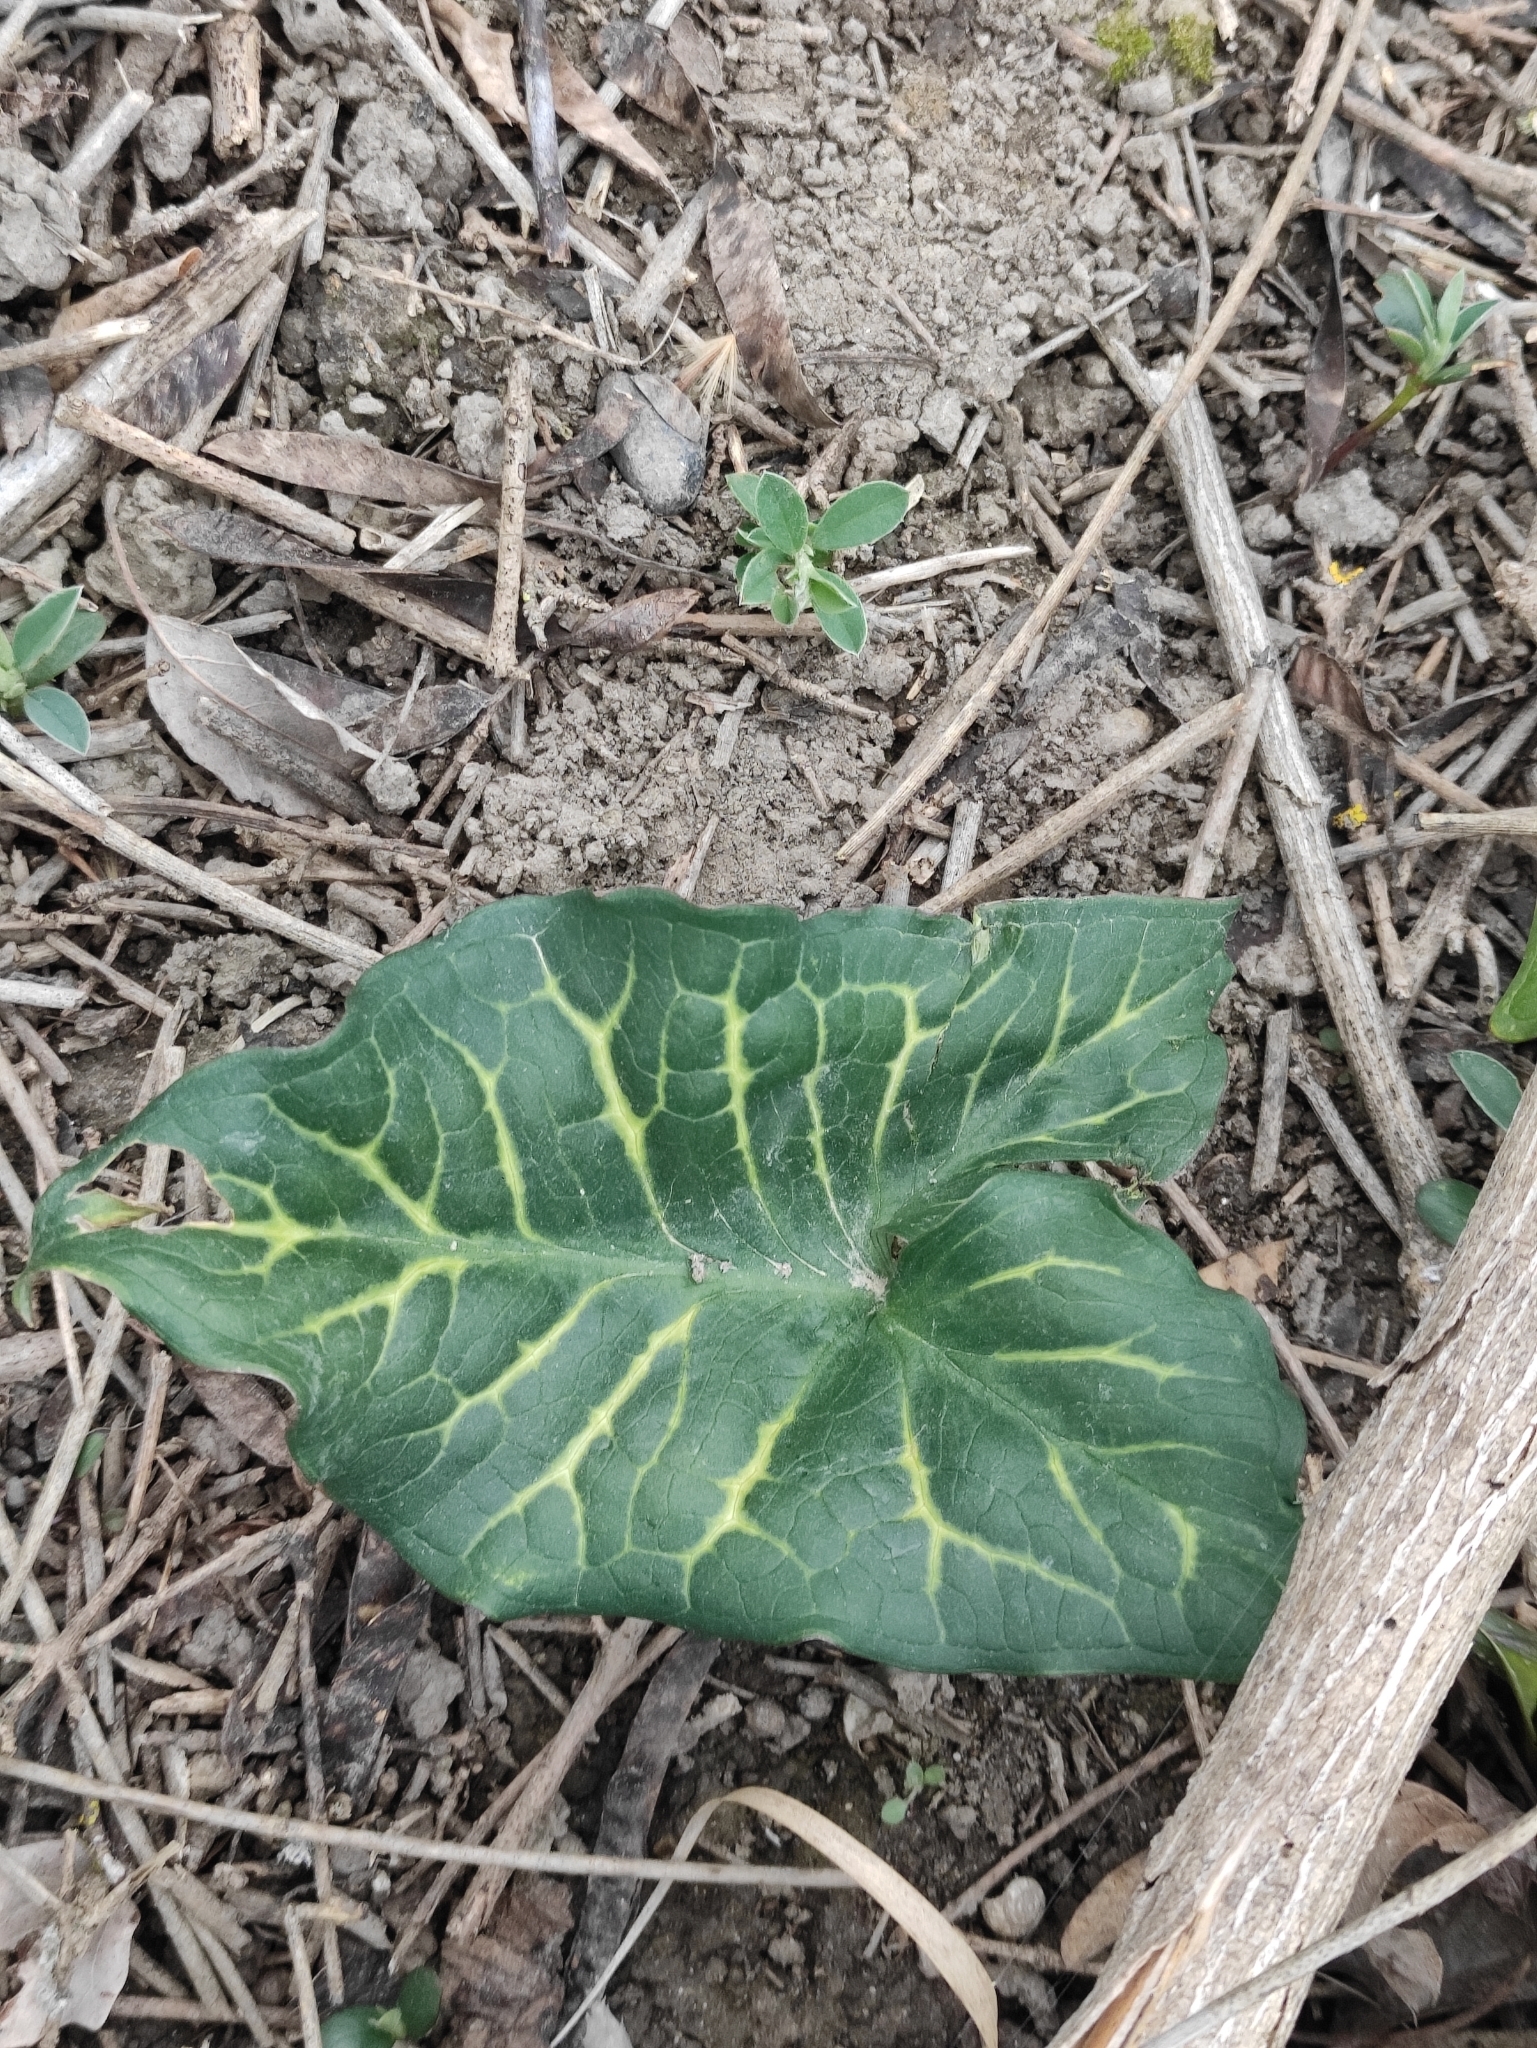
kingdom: Plantae
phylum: Tracheophyta
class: Liliopsida
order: Alismatales
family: Araceae
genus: Arum
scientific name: Arum italicum
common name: Italian lords-and-ladies
